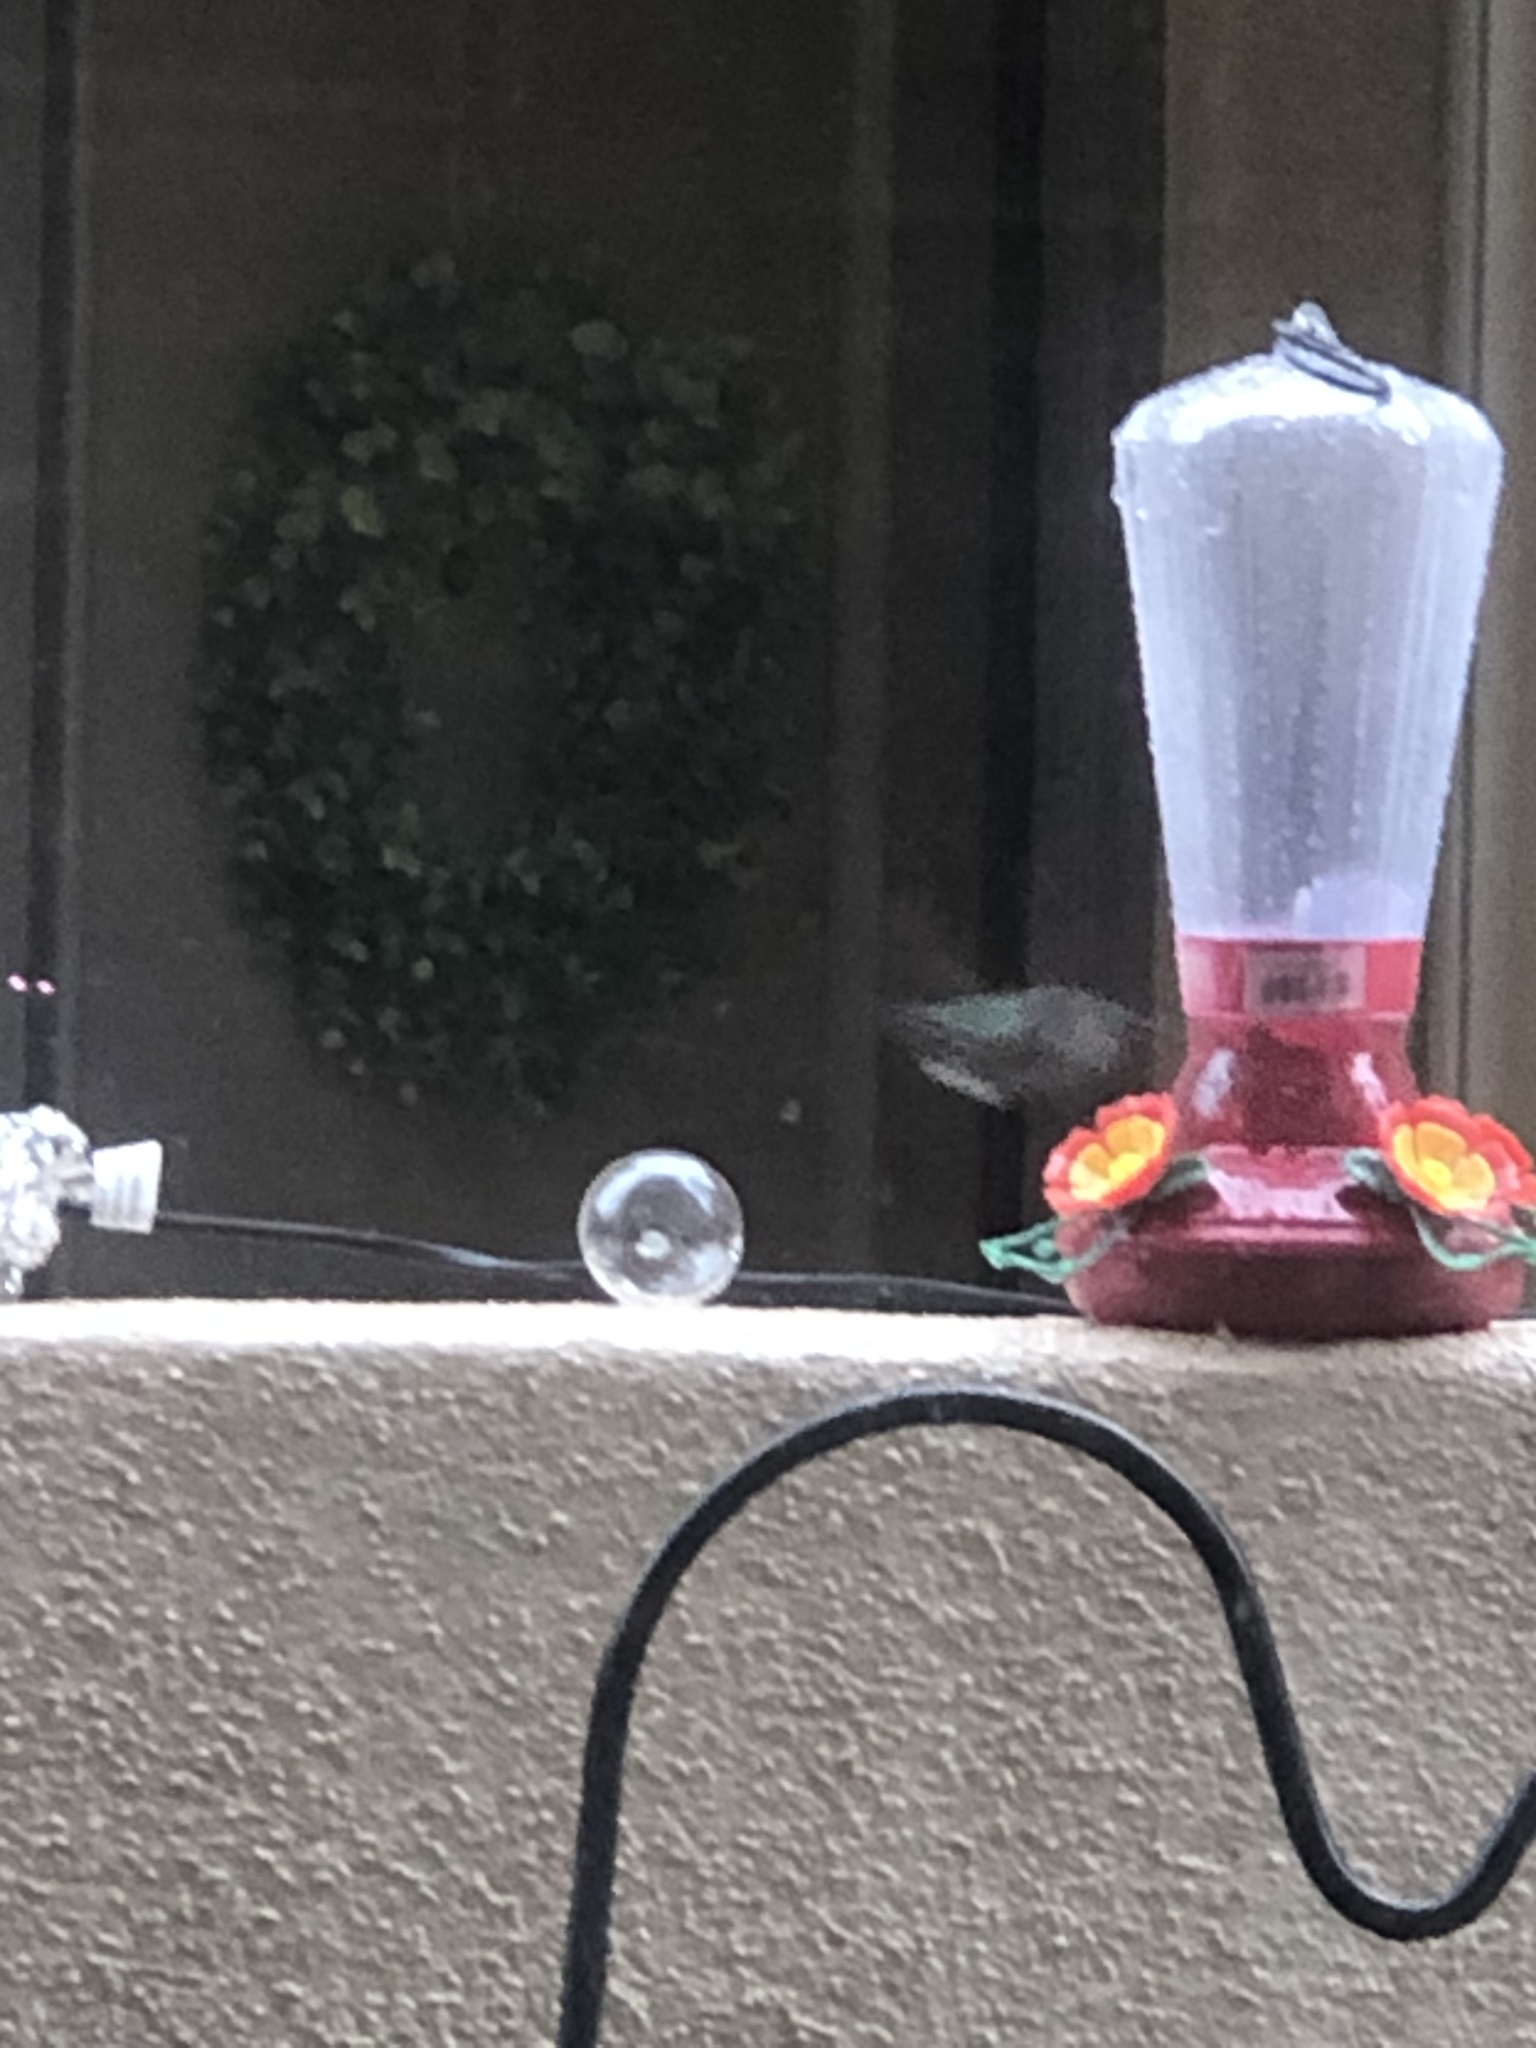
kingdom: Animalia
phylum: Chordata
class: Aves
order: Apodiformes
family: Trochilidae
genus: Calypte
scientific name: Calypte anna
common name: Anna's hummingbird
